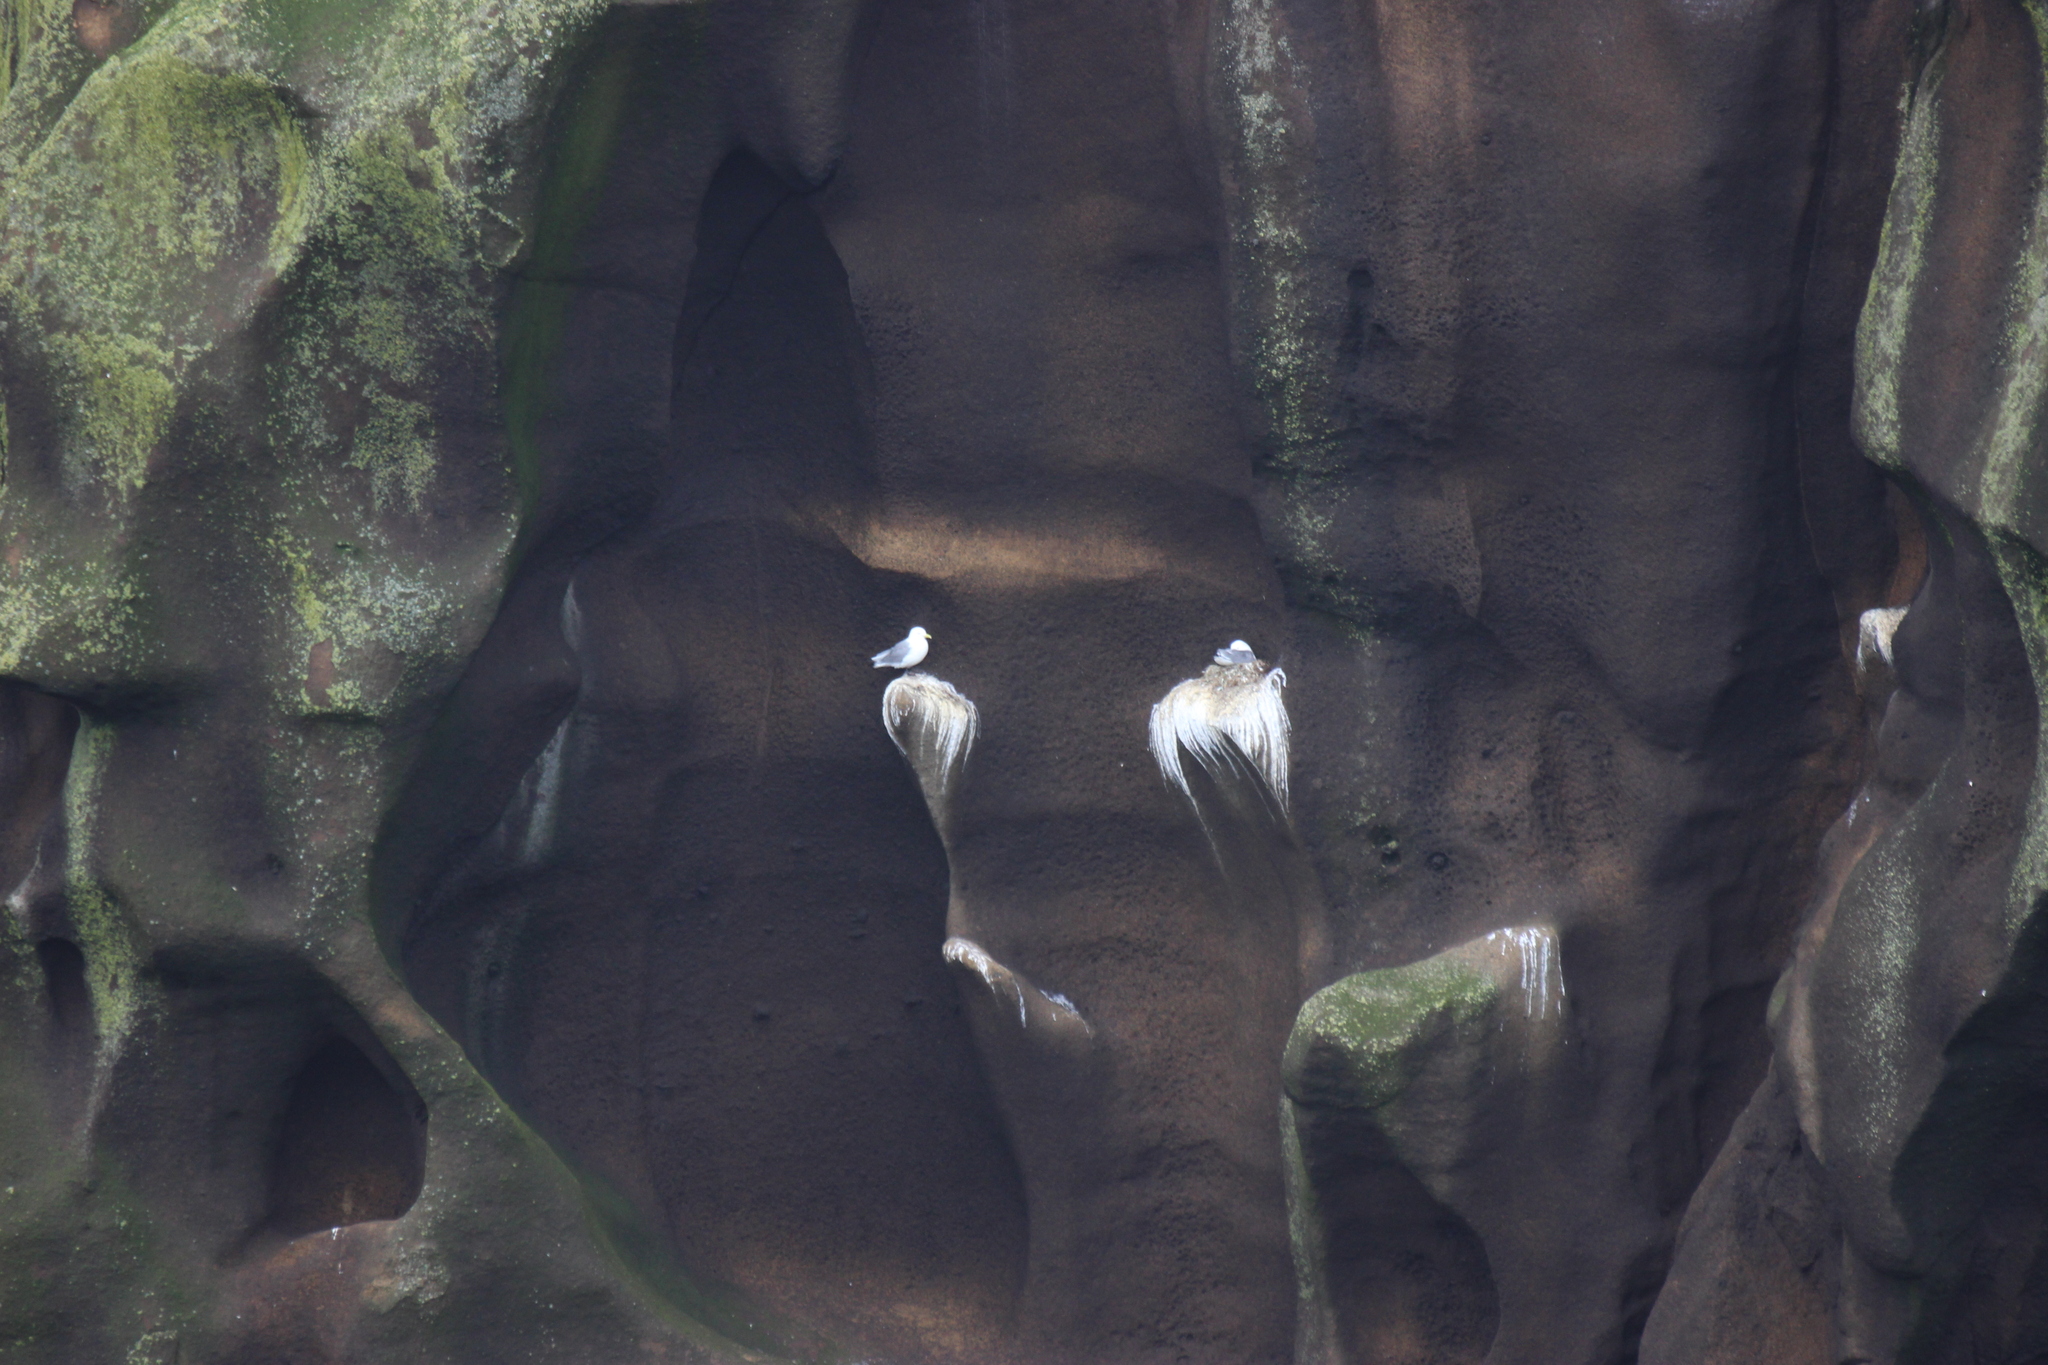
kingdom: Animalia
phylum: Chordata
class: Aves
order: Charadriiformes
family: Laridae
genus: Rissa
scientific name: Rissa tridactyla
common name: Black-legged kittiwake
